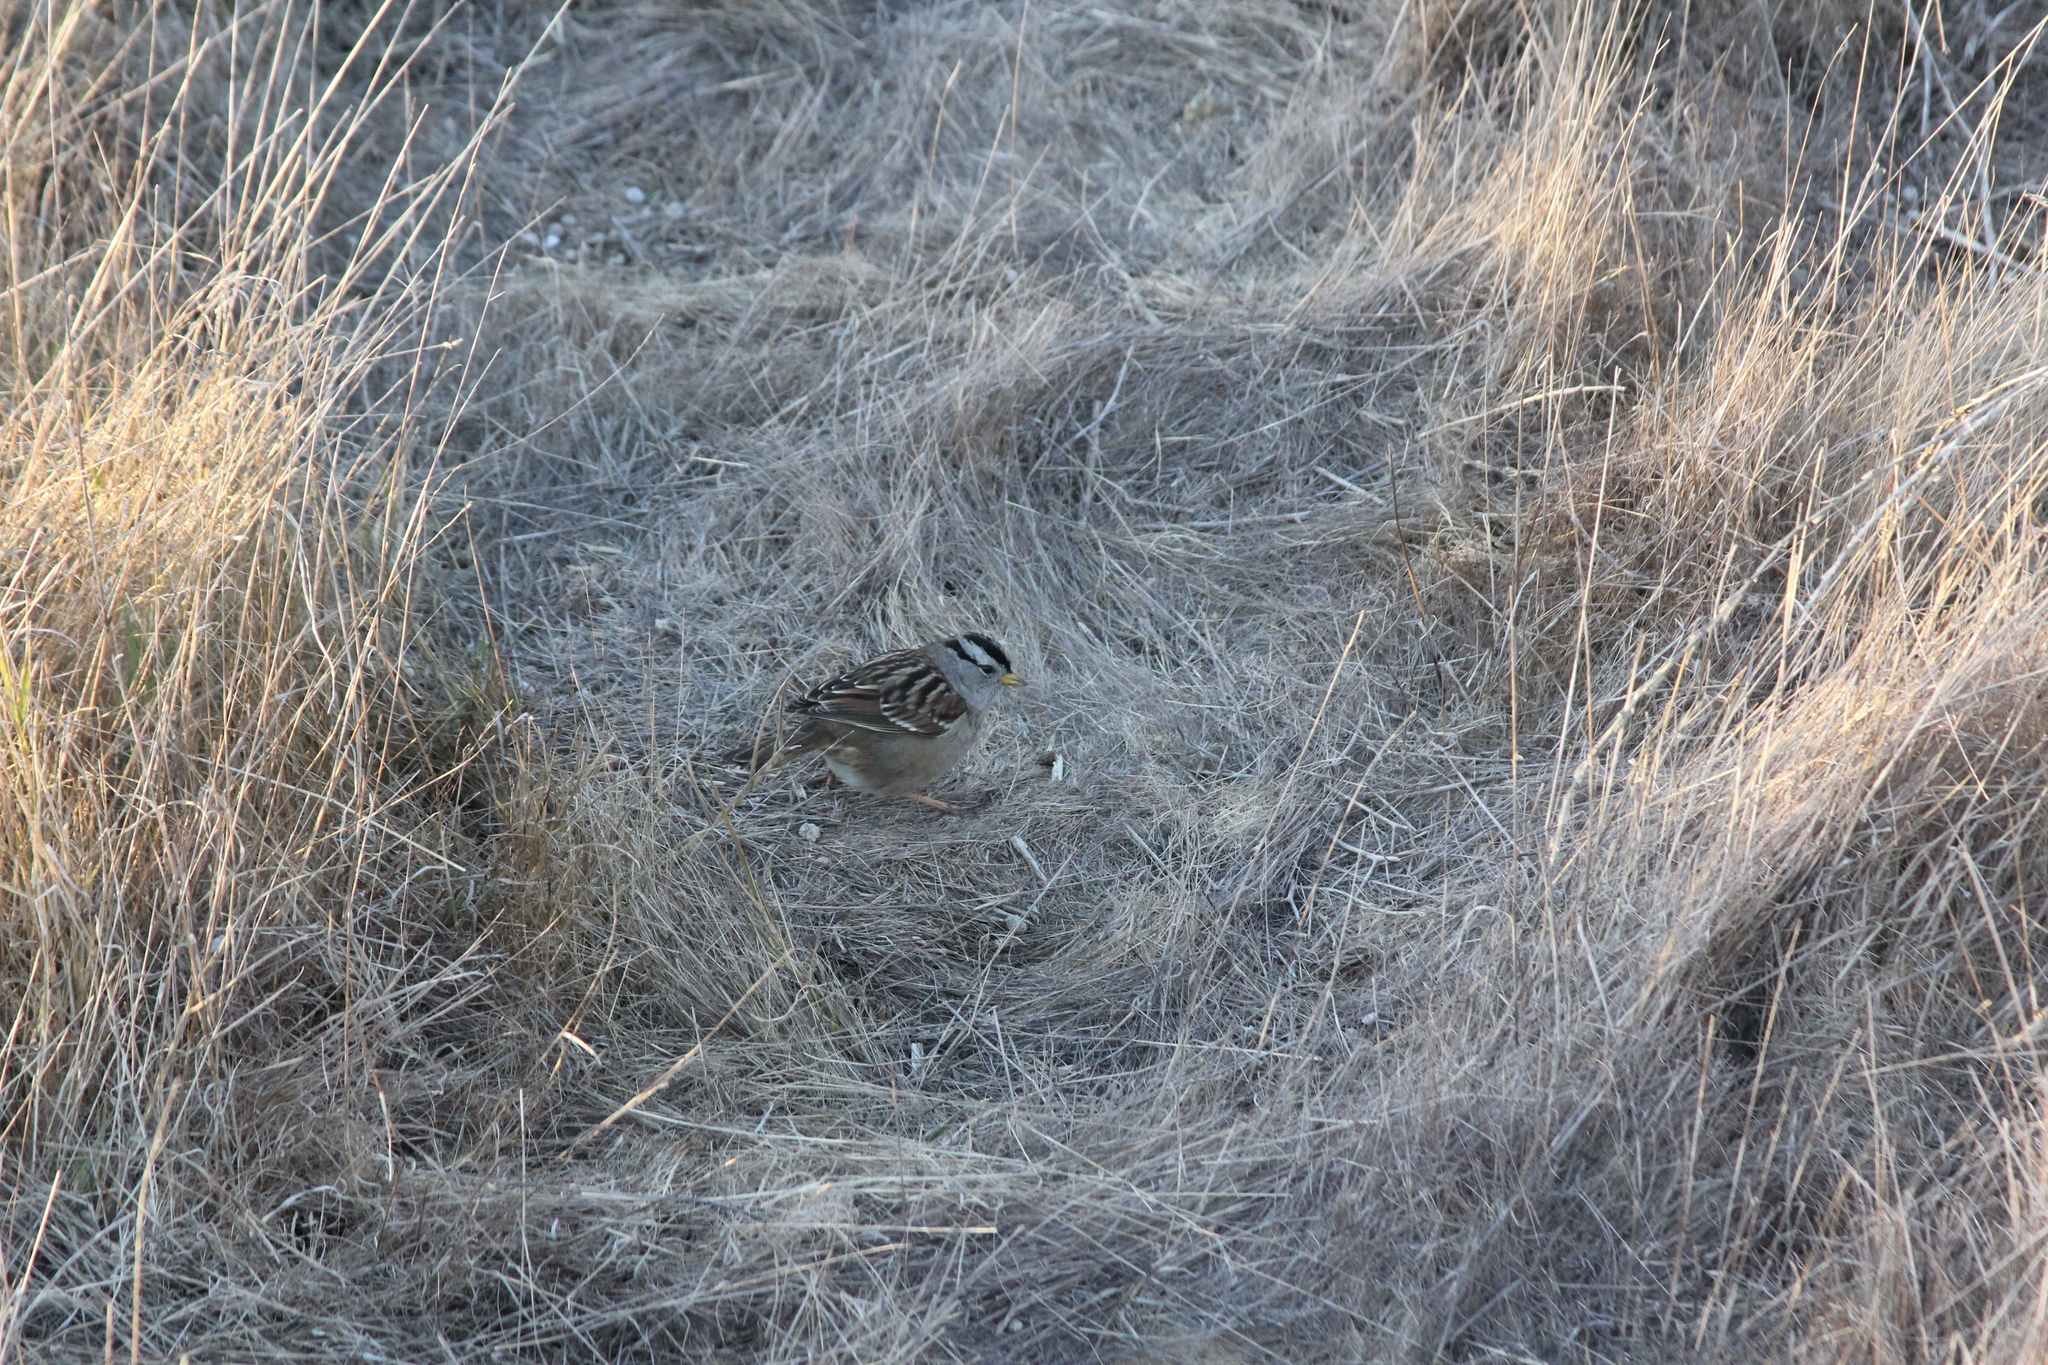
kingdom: Animalia
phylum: Chordata
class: Aves
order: Passeriformes
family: Passerellidae
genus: Zonotrichia
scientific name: Zonotrichia leucophrys
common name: White-crowned sparrow
